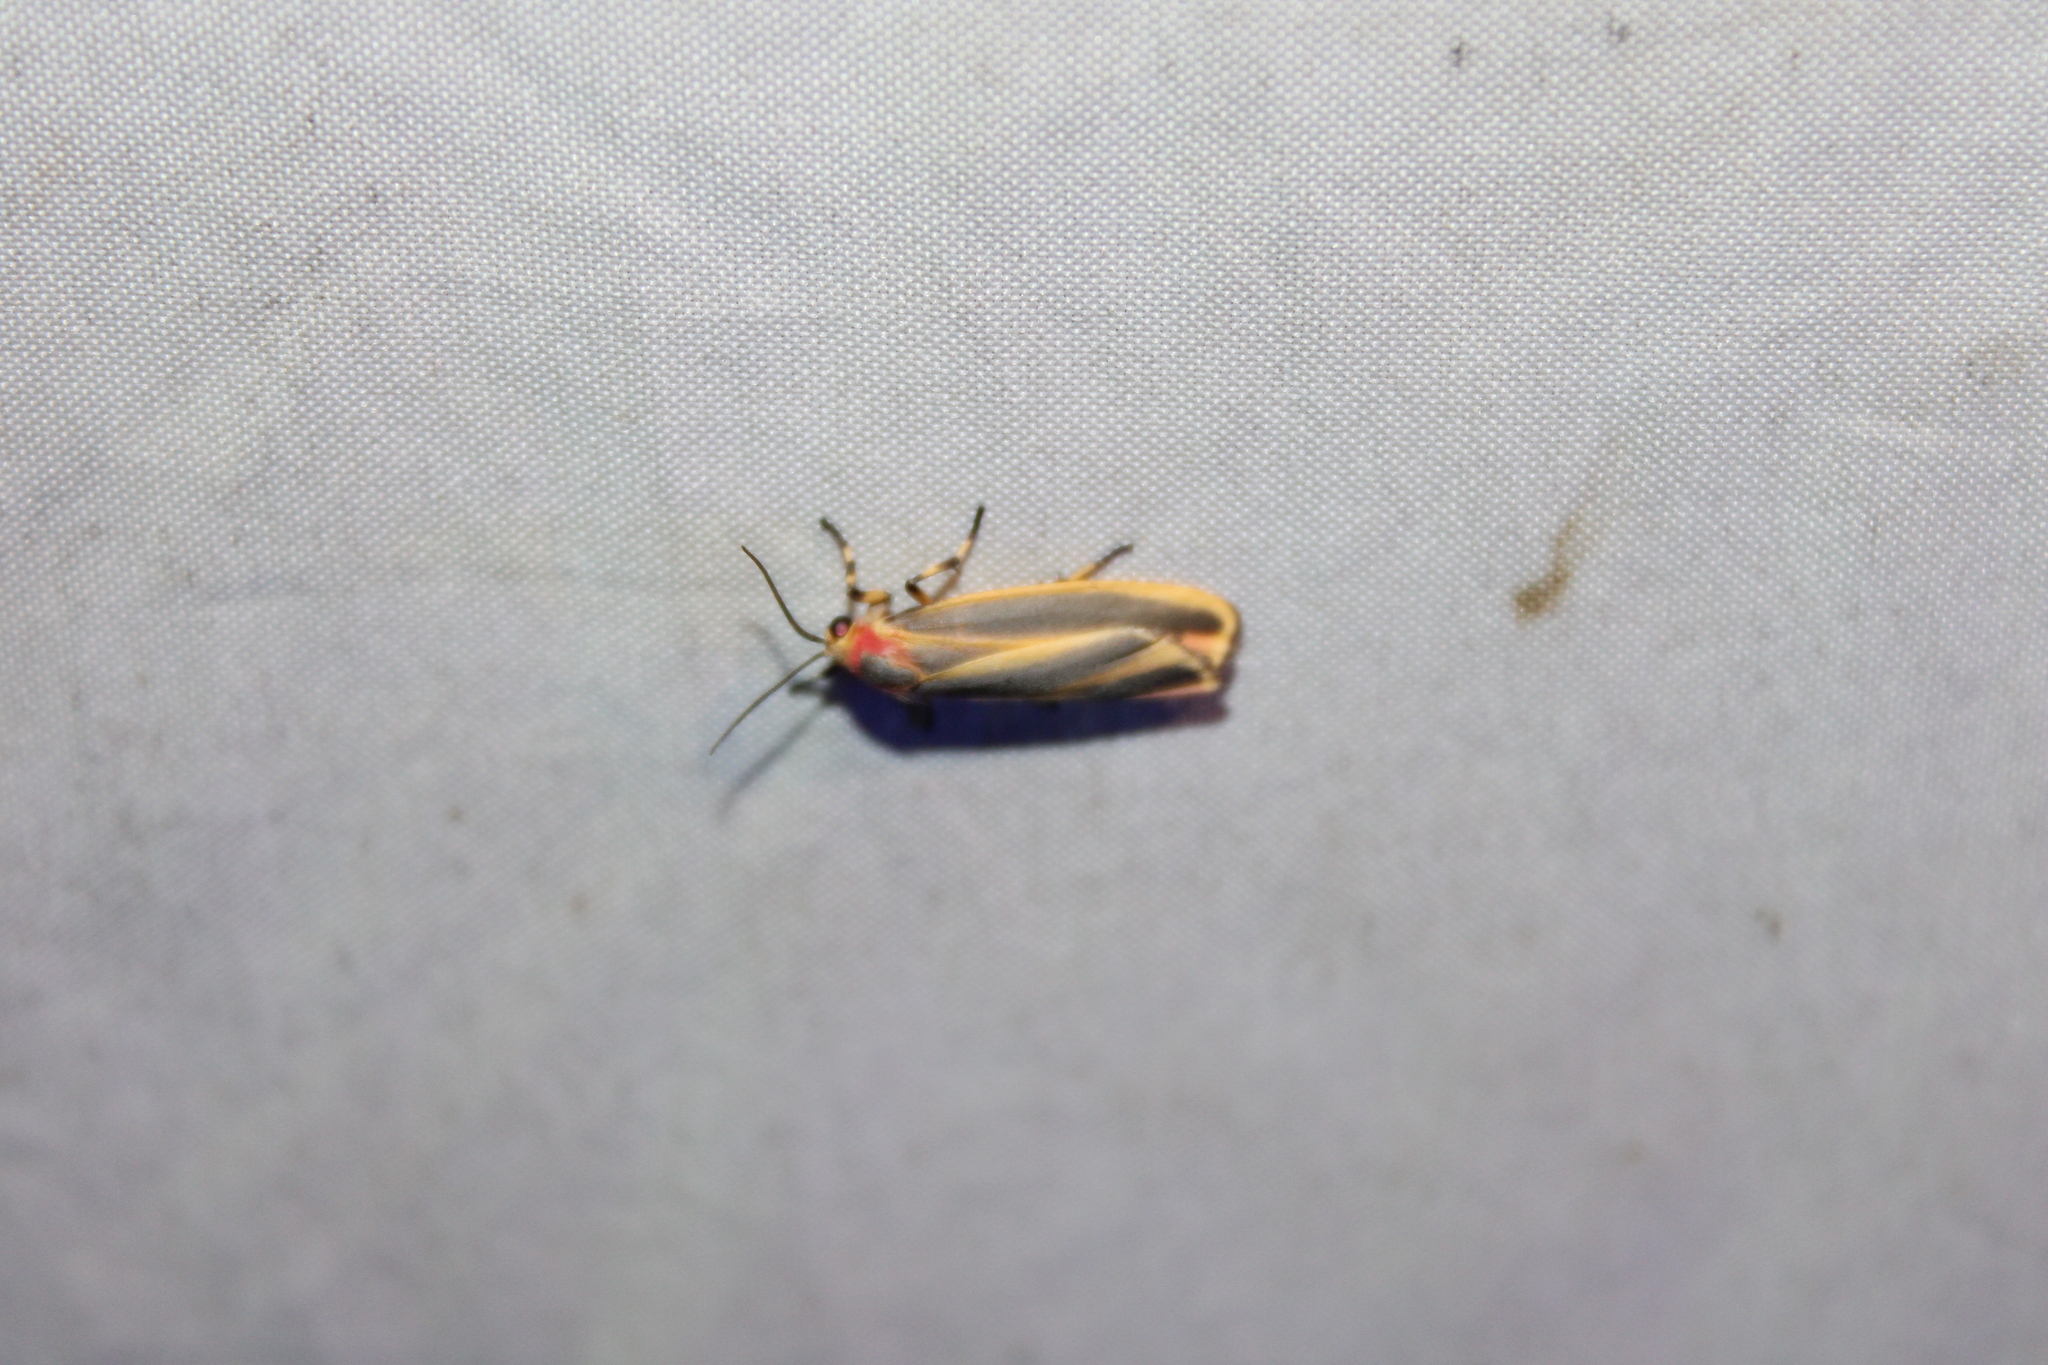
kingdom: Animalia
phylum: Arthropoda
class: Insecta
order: Lepidoptera
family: Erebidae
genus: Hypoprepia
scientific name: Hypoprepia fucosa
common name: Painted lichen moth
